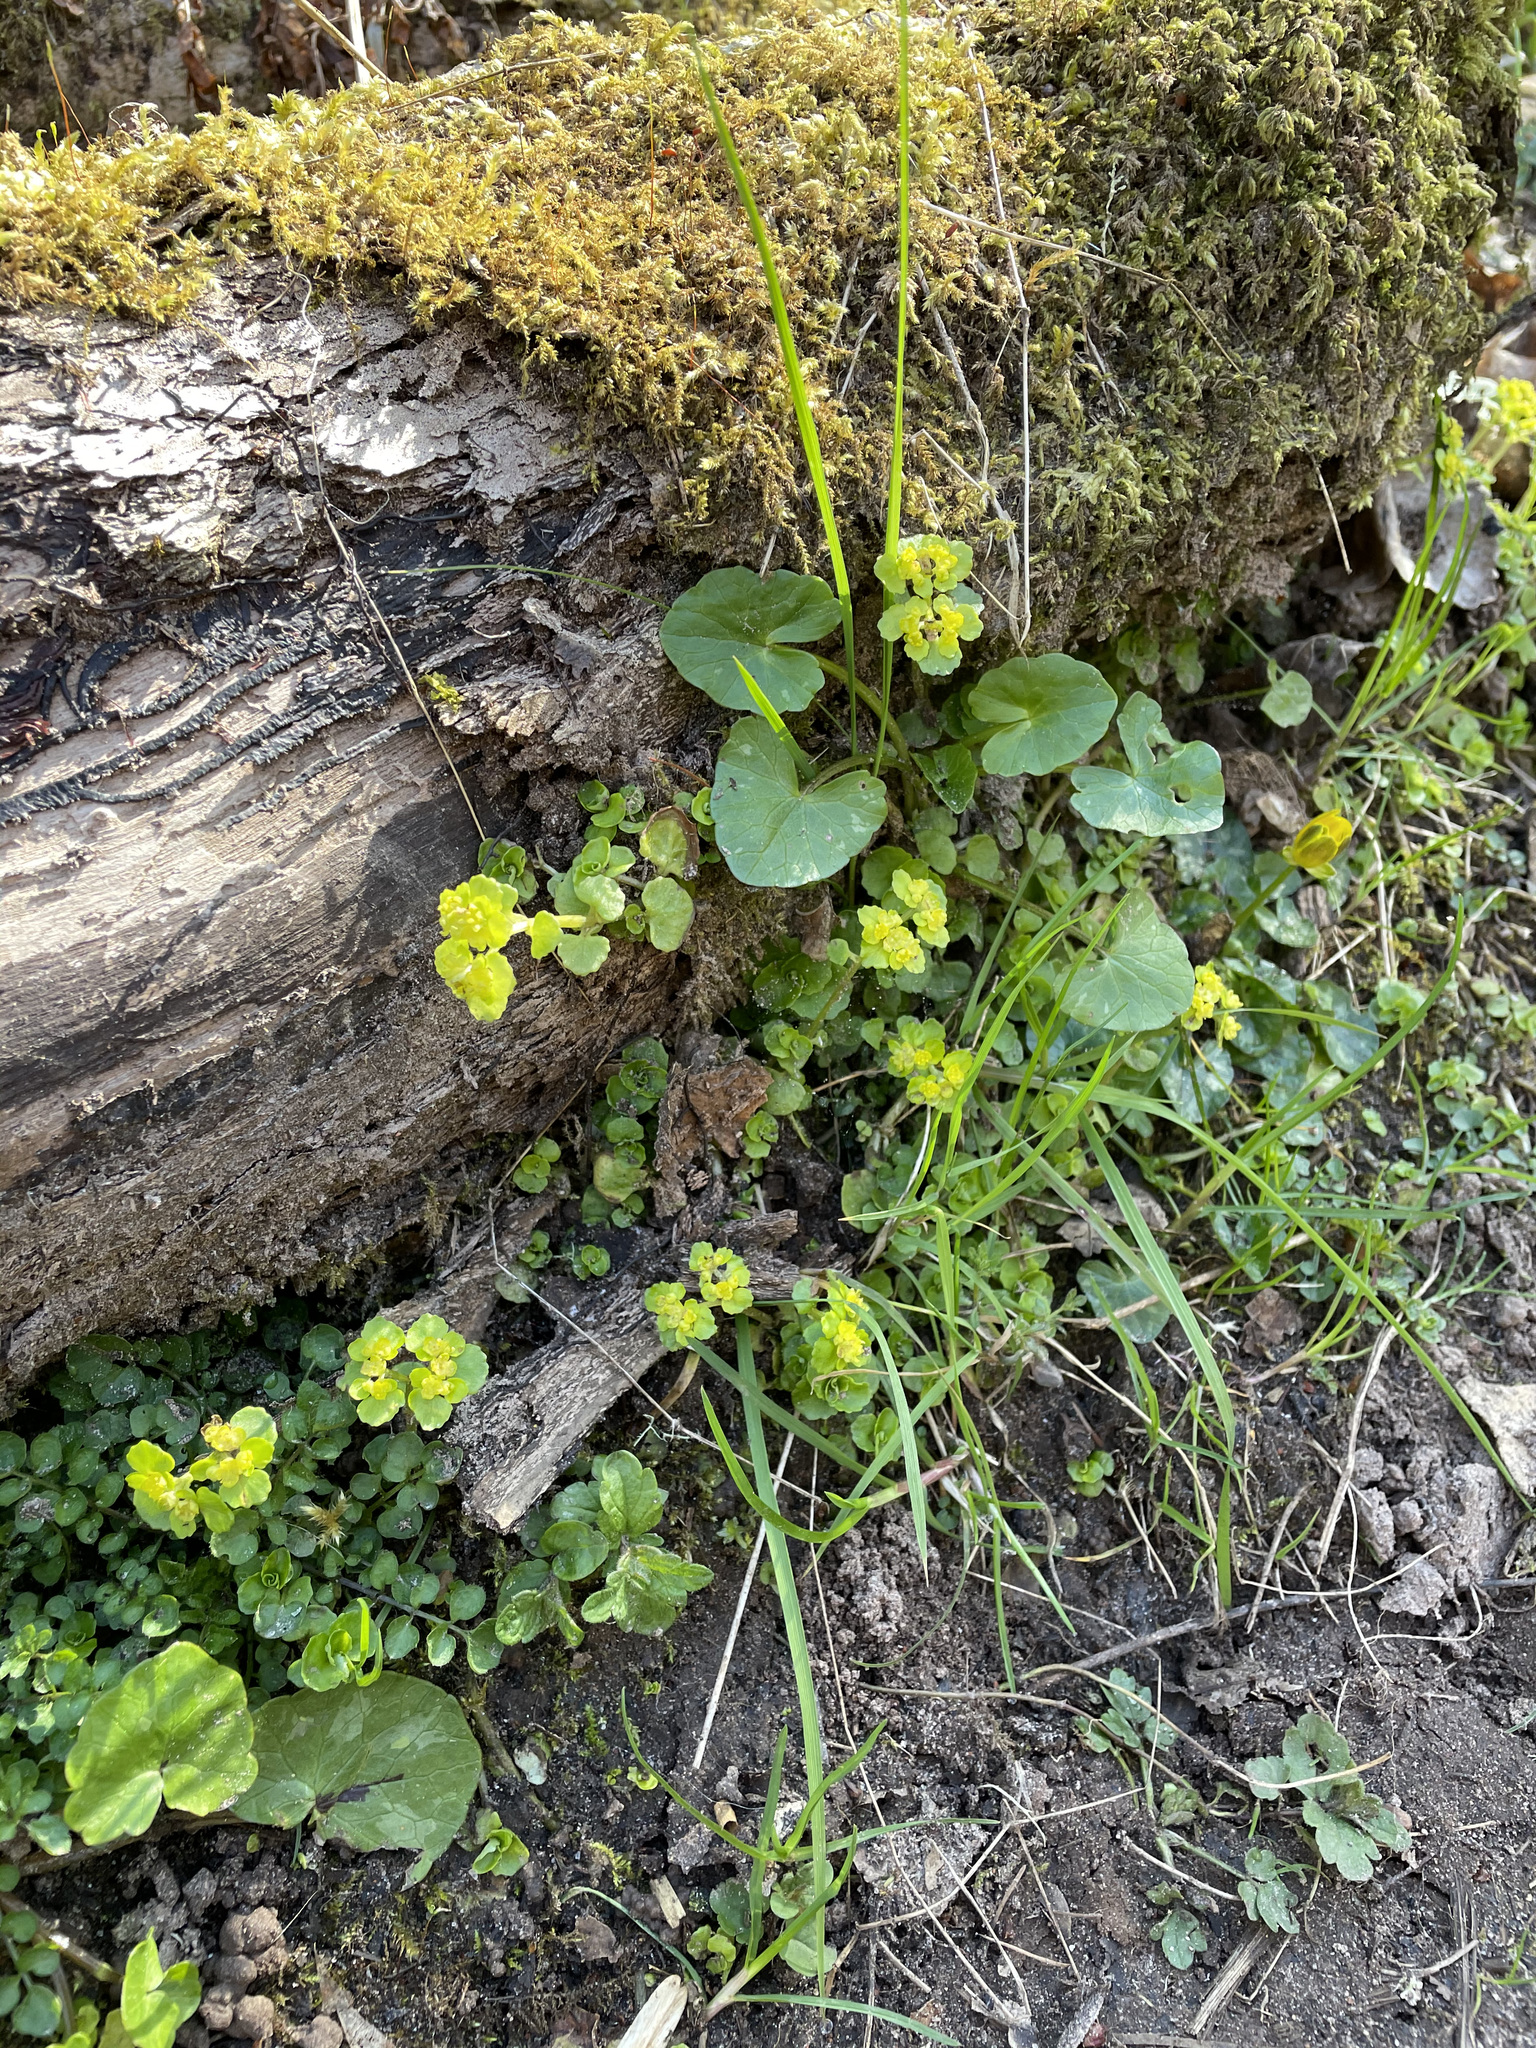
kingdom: Plantae
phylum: Tracheophyta
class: Magnoliopsida
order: Saxifragales
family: Saxifragaceae
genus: Chrysosplenium
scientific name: Chrysosplenium oppositifolium
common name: Opposite-leaved golden-saxifrage
